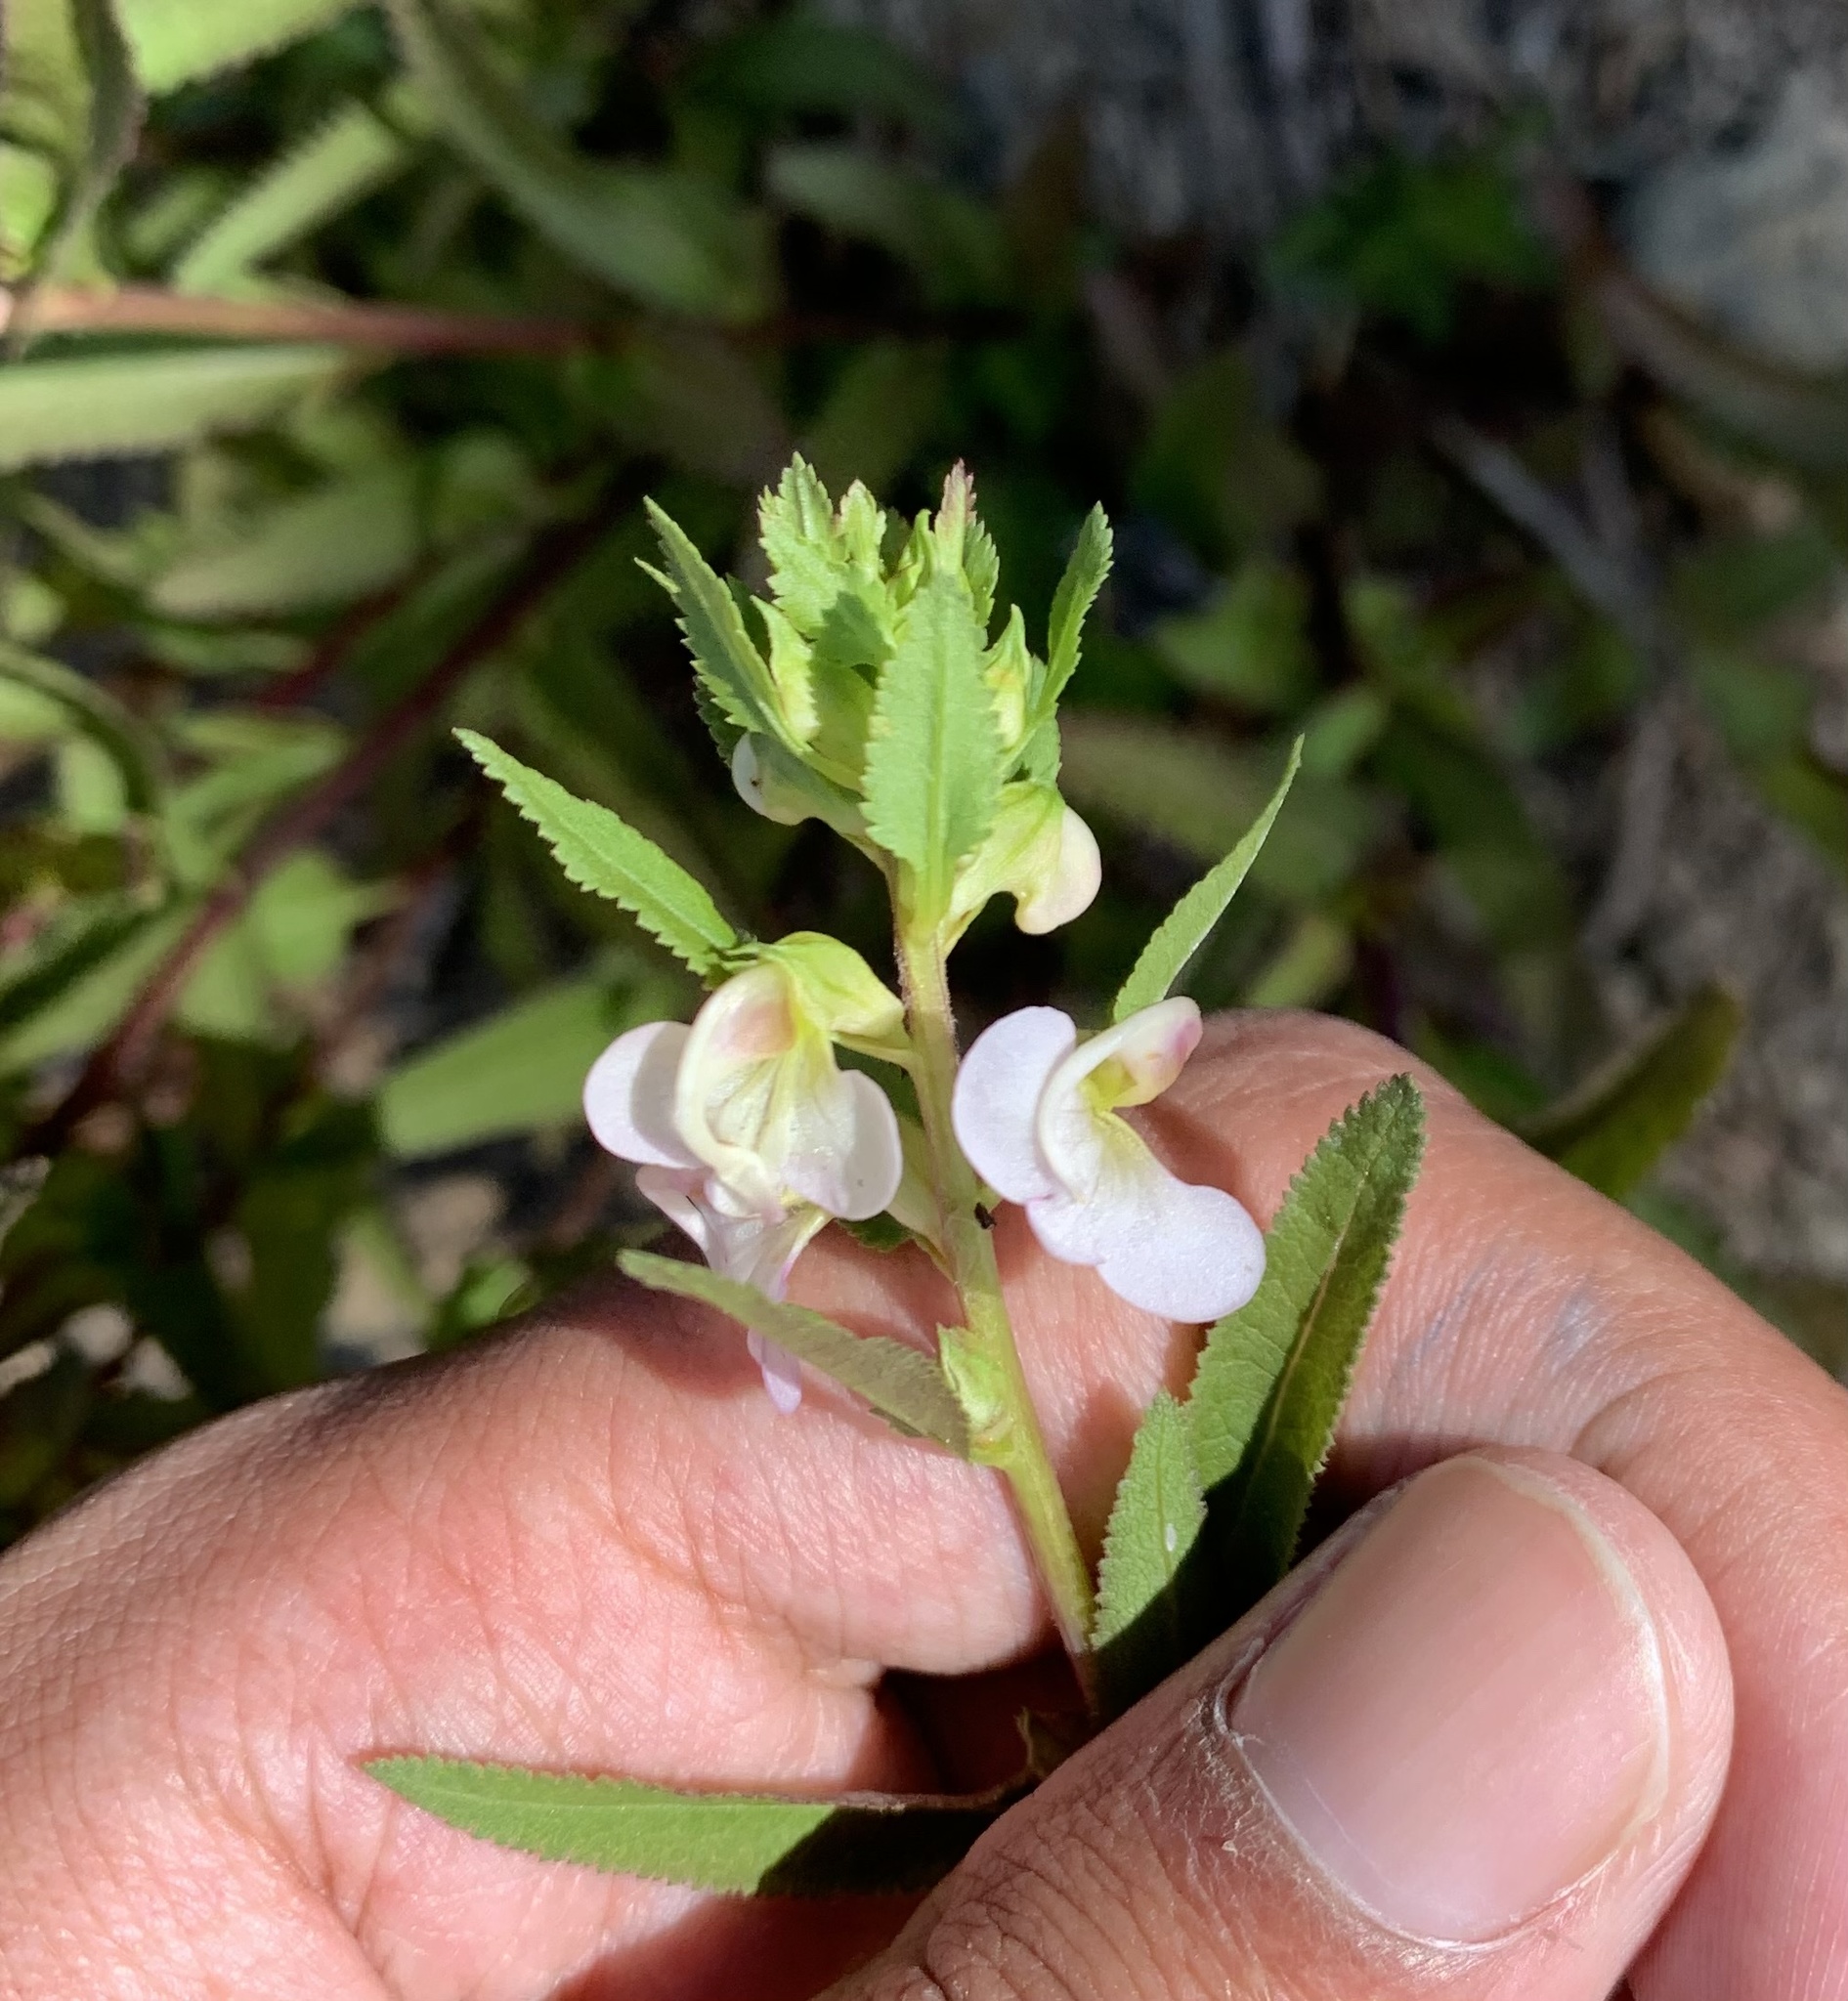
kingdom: Plantae
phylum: Tracheophyta
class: Magnoliopsida
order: Lamiales
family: Orobanchaceae
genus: Pedicularis
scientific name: Pedicularis racemosa
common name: Leafy lousewort
